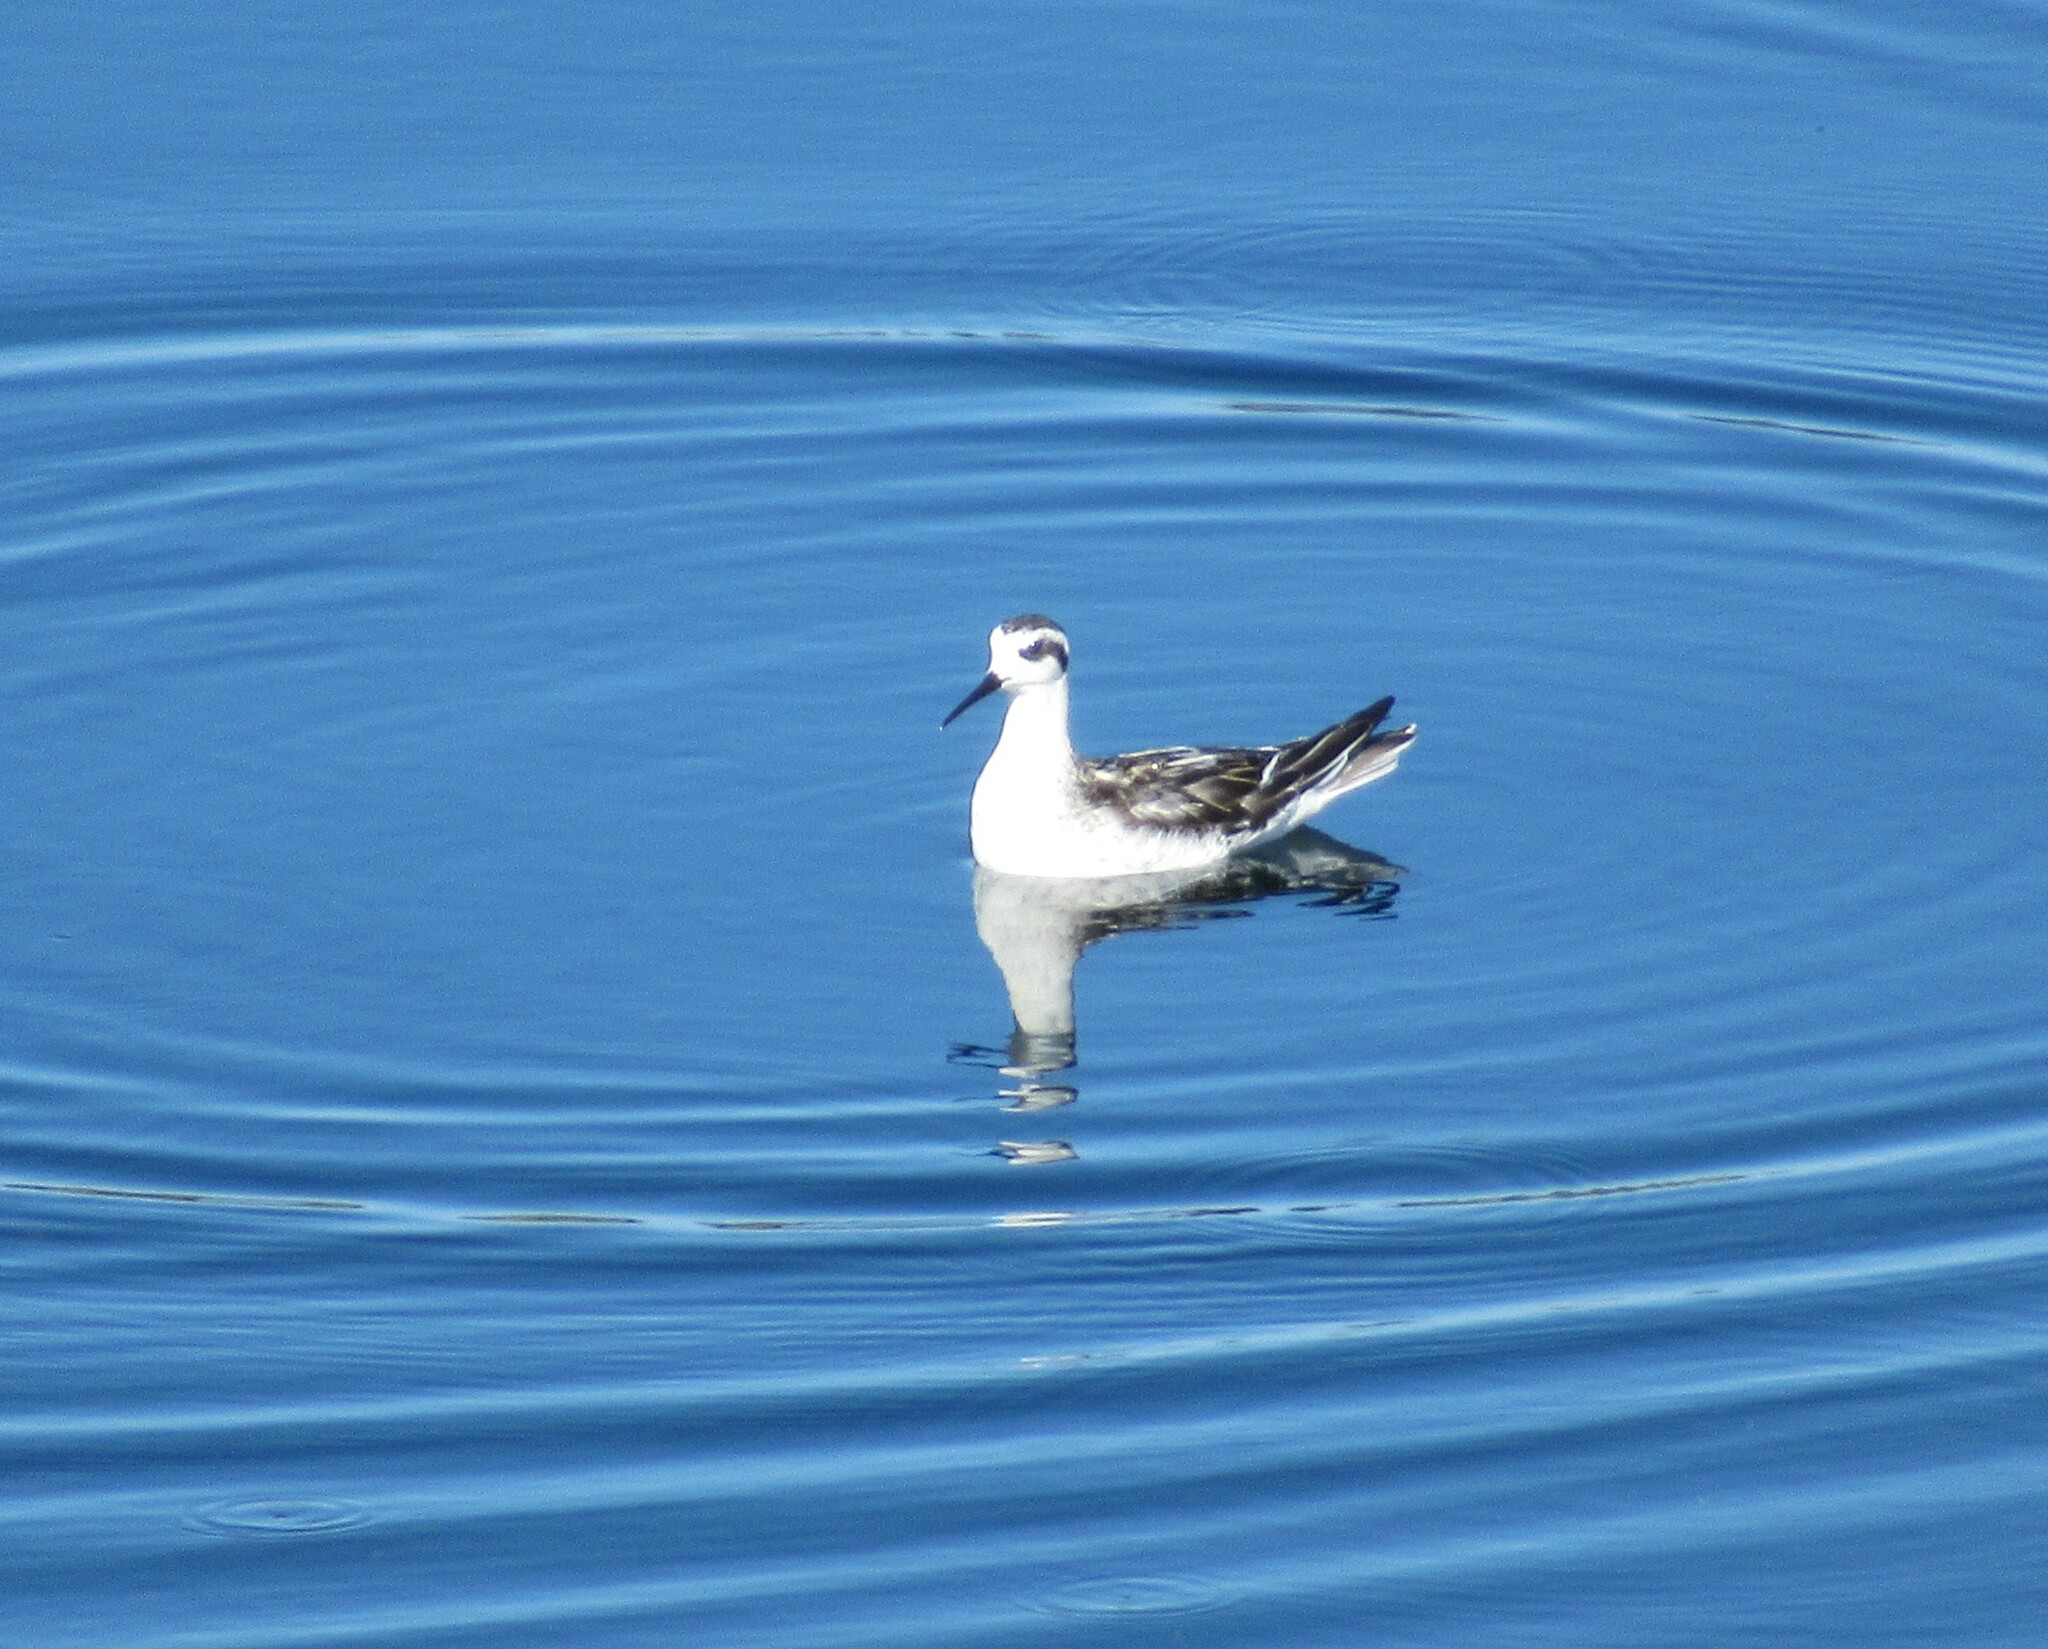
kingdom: Animalia
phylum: Chordata
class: Aves
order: Charadriiformes
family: Scolopacidae
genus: Phalaropus
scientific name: Phalaropus lobatus
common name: Red-necked phalarope
